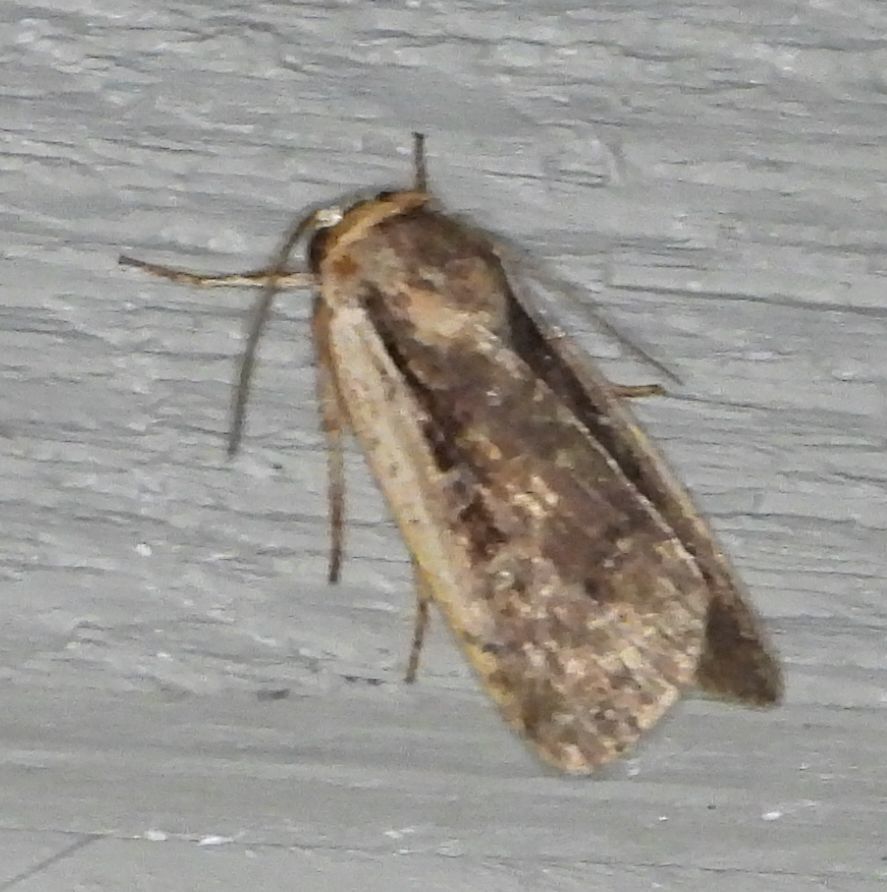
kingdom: Animalia
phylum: Arthropoda
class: Insecta
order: Lepidoptera
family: Noctuidae
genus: Ochropleura
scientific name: Ochropleura implecta
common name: Flame-shouldered dart
